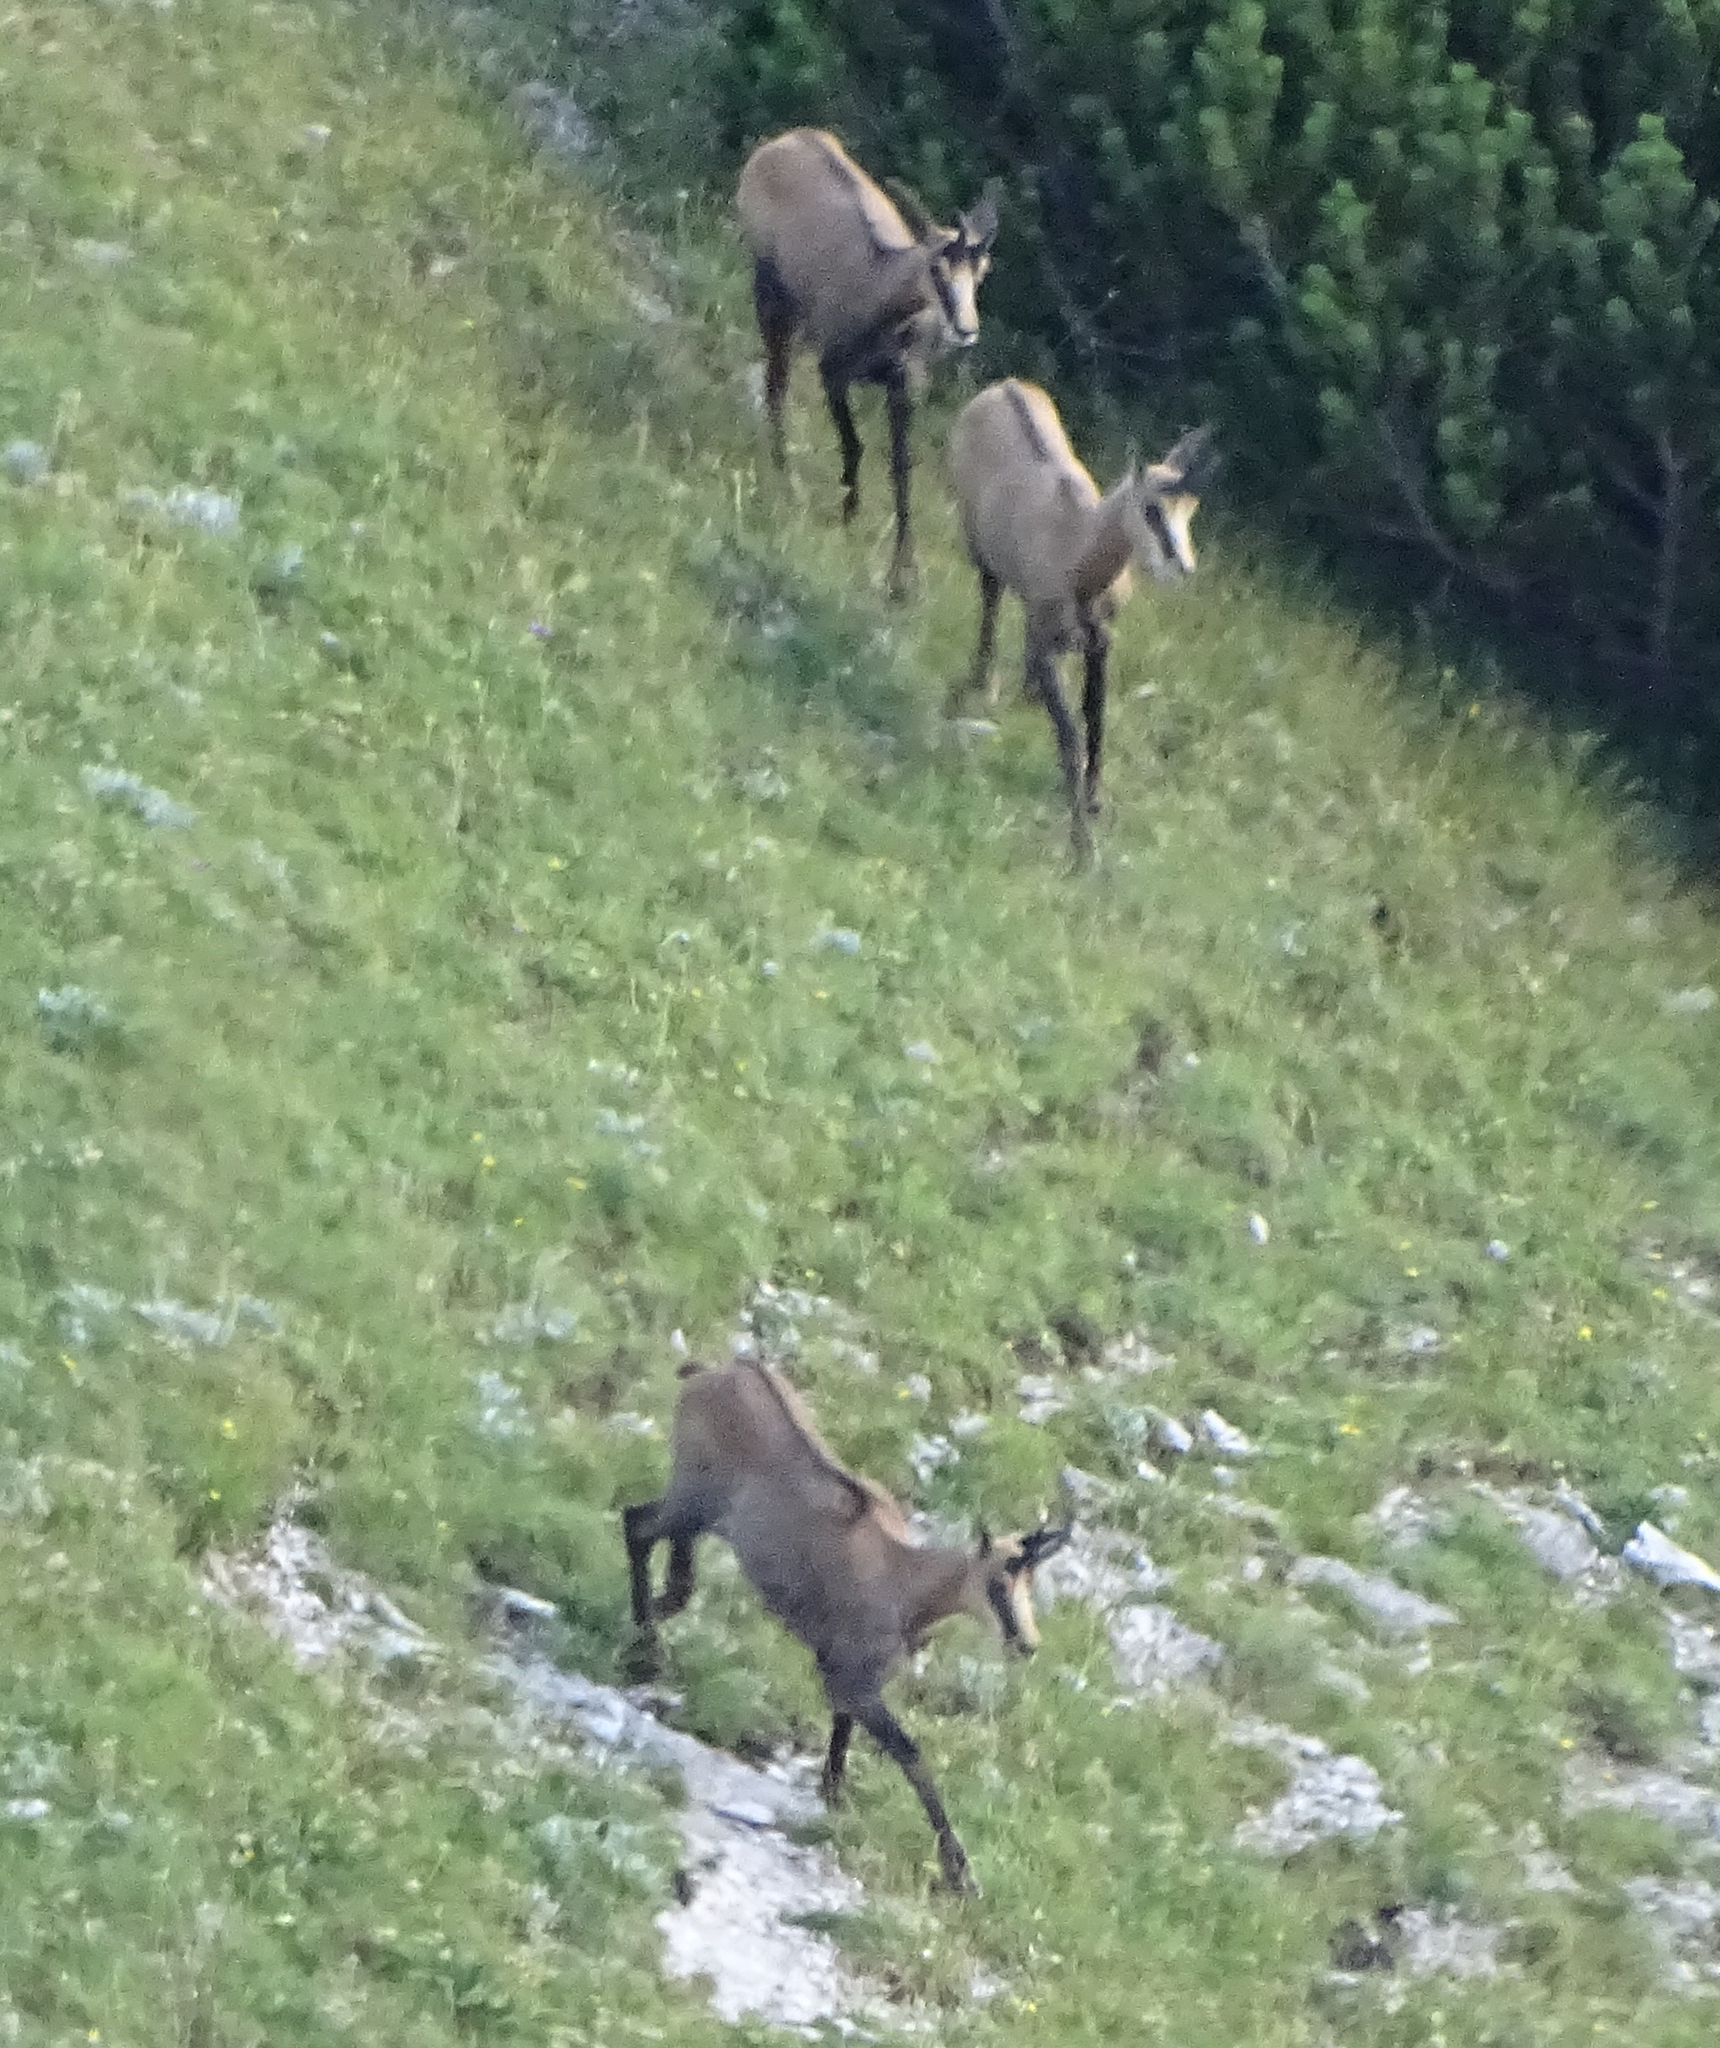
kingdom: Animalia
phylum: Chordata
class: Mammalia
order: Artiodactyla
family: Bovidae
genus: Rupicapra
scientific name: Rupicapra rupicapra
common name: Chamois
